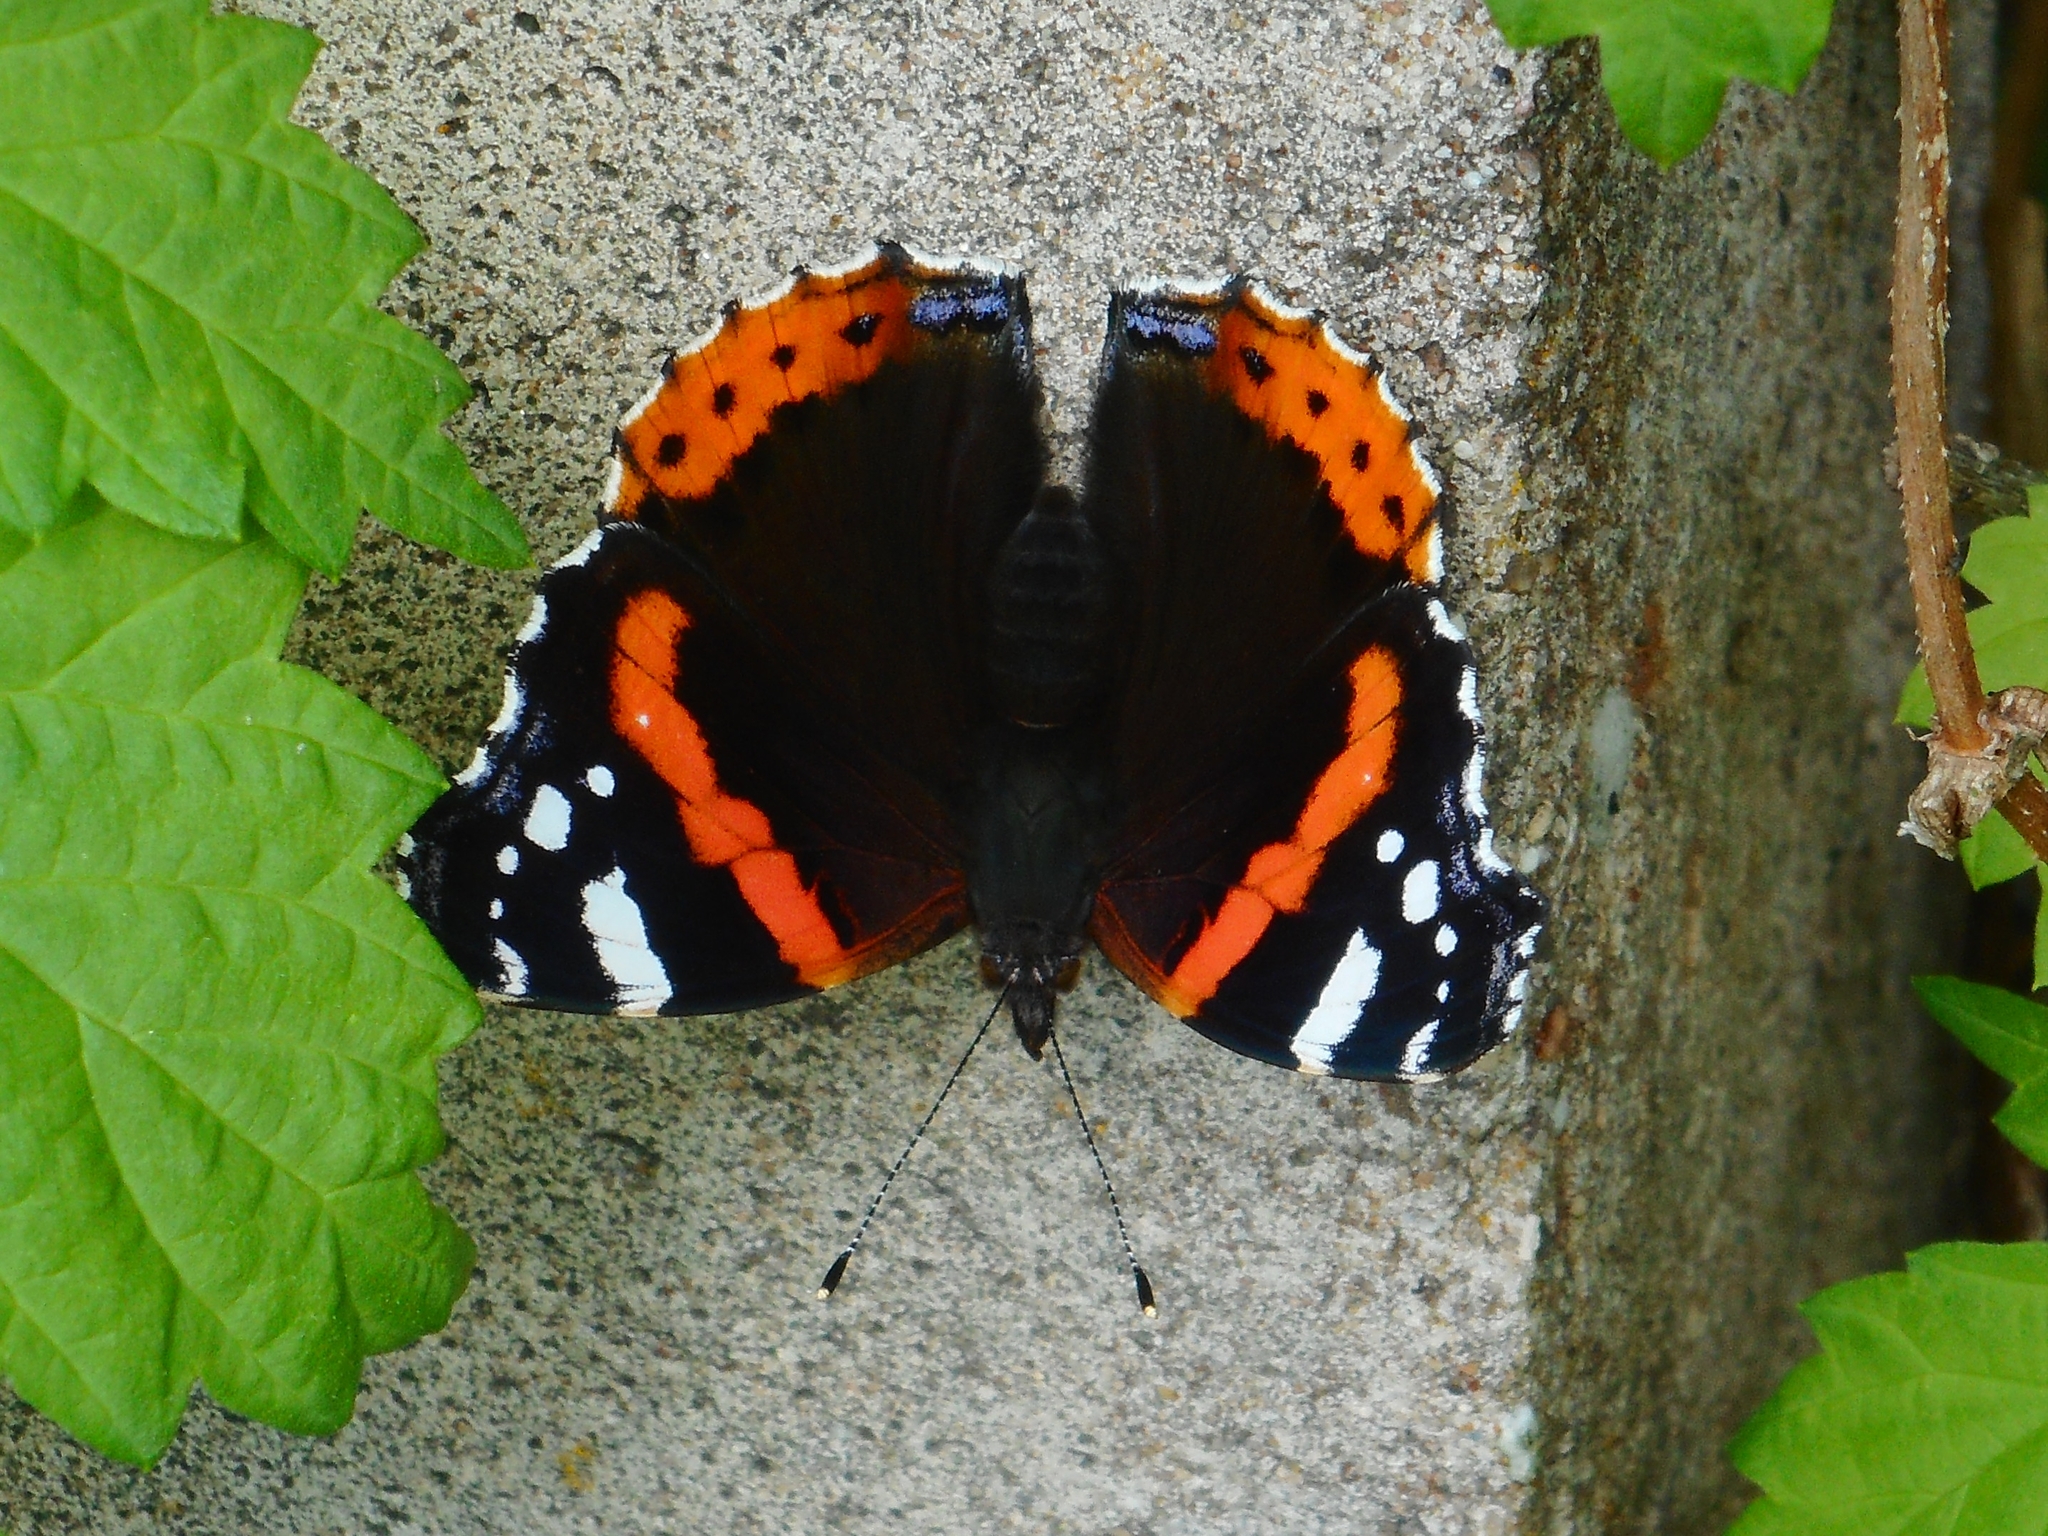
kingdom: Animalia
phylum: Arthropoda
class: Insecta
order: Lepidoptera
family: Nymphalidae
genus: Vanessa
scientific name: Vanessa atalanta
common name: Red admiral
